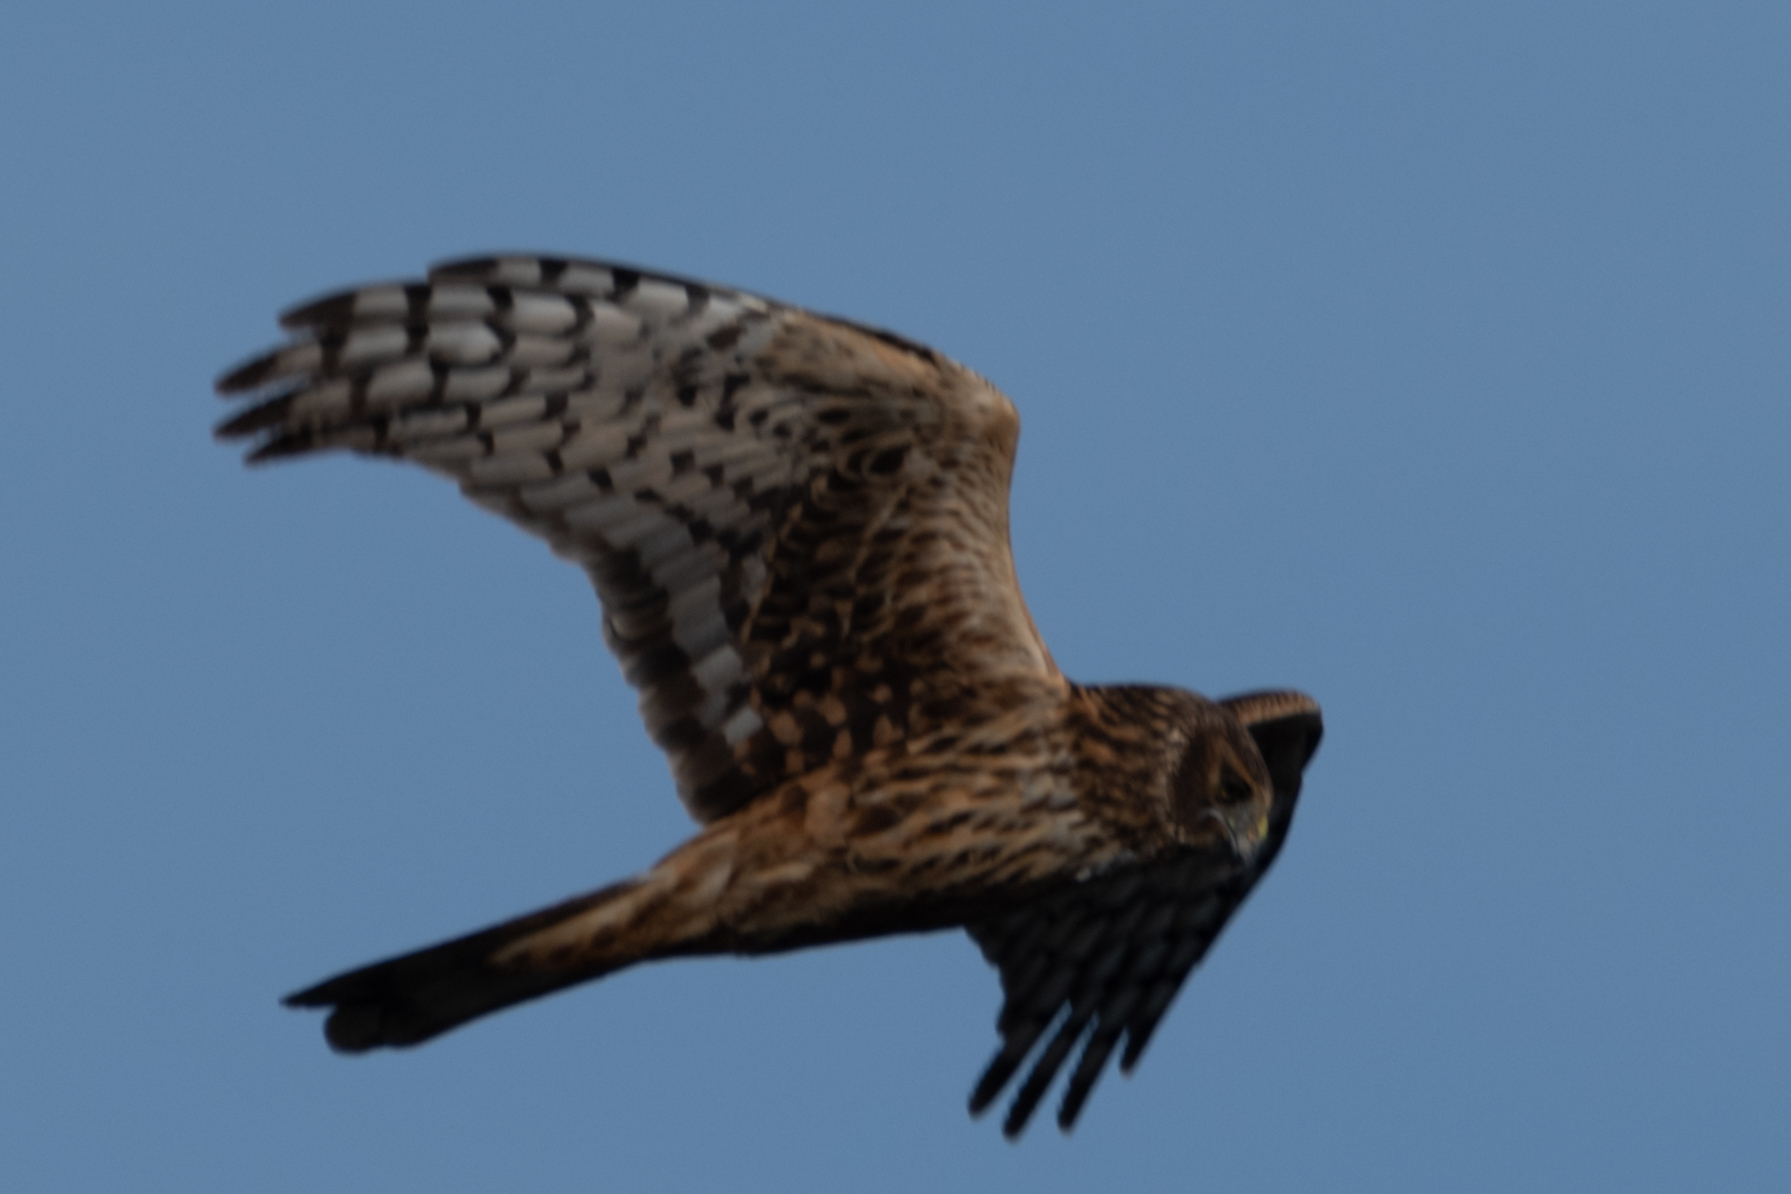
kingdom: Animalia
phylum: Chordata
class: Aves
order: Accipitriformes
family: Accipitridae
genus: Circus
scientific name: Circus cyaneus
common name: Hen harrier
